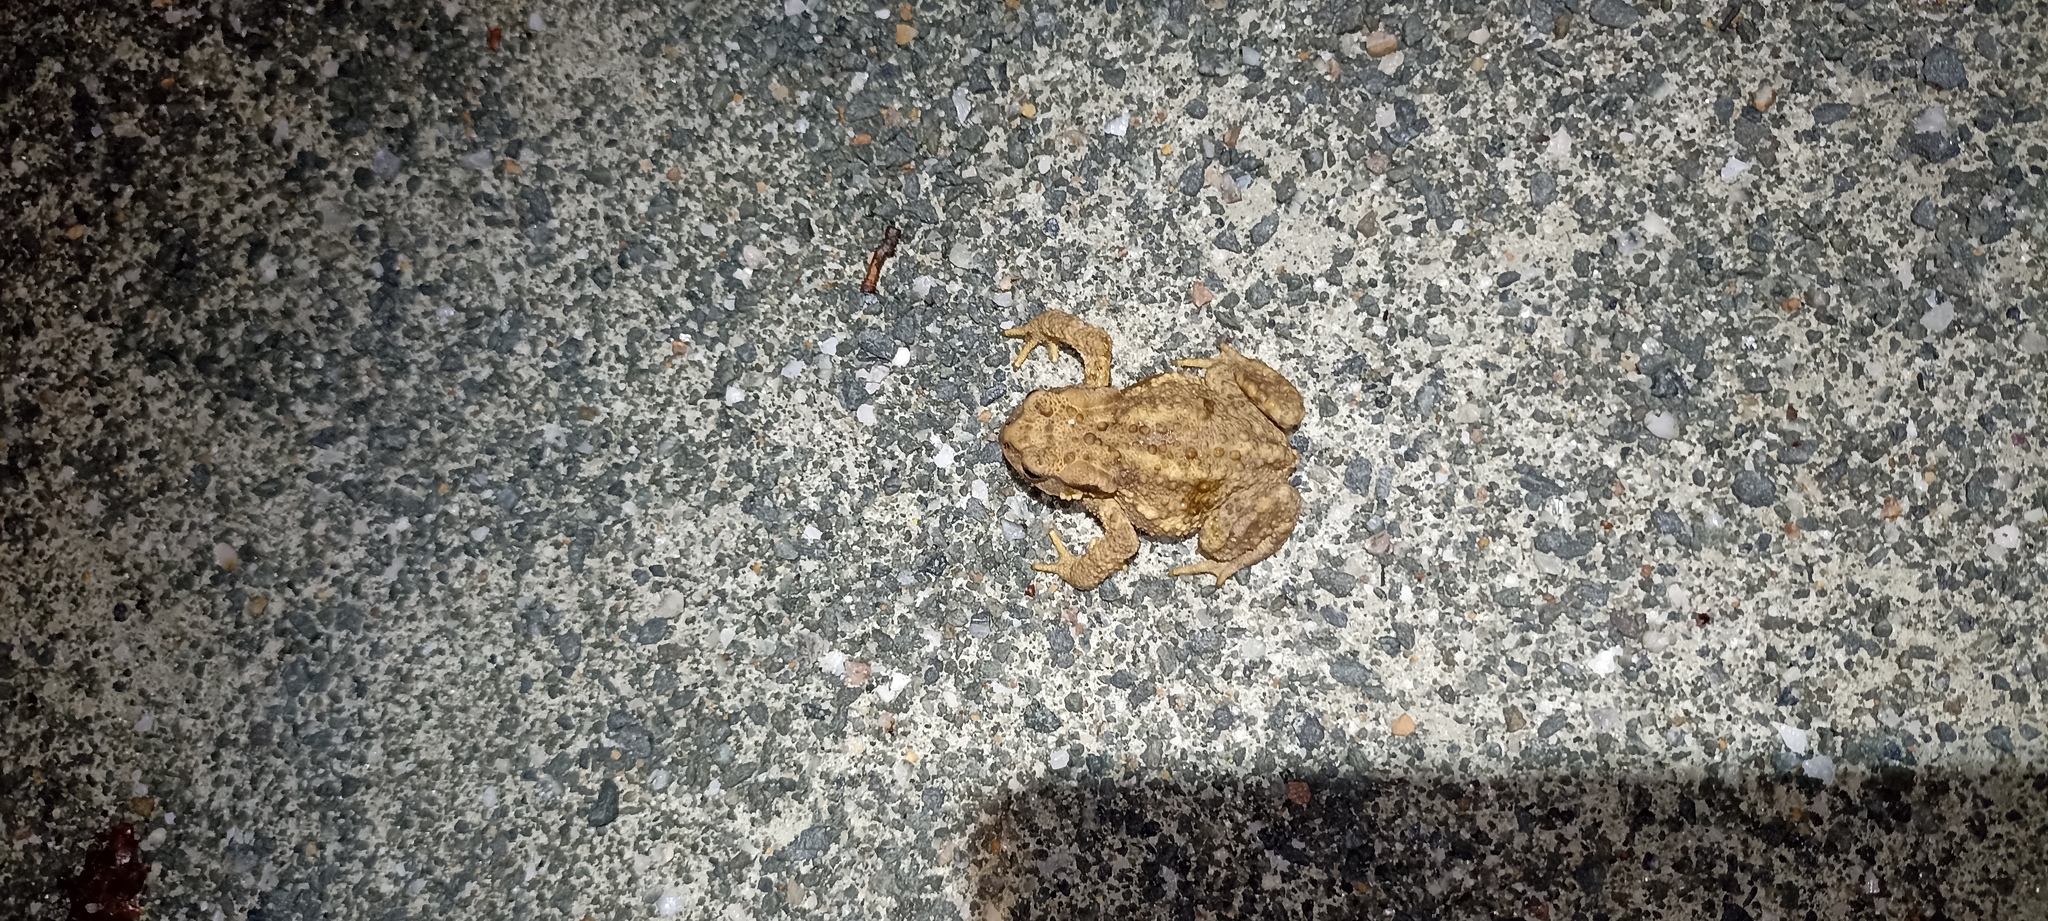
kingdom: Animalia
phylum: Chordata
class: Amphibia
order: Anura
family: Bufonidae
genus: Bufo
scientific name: Bufo spinosus
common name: Western common toad
